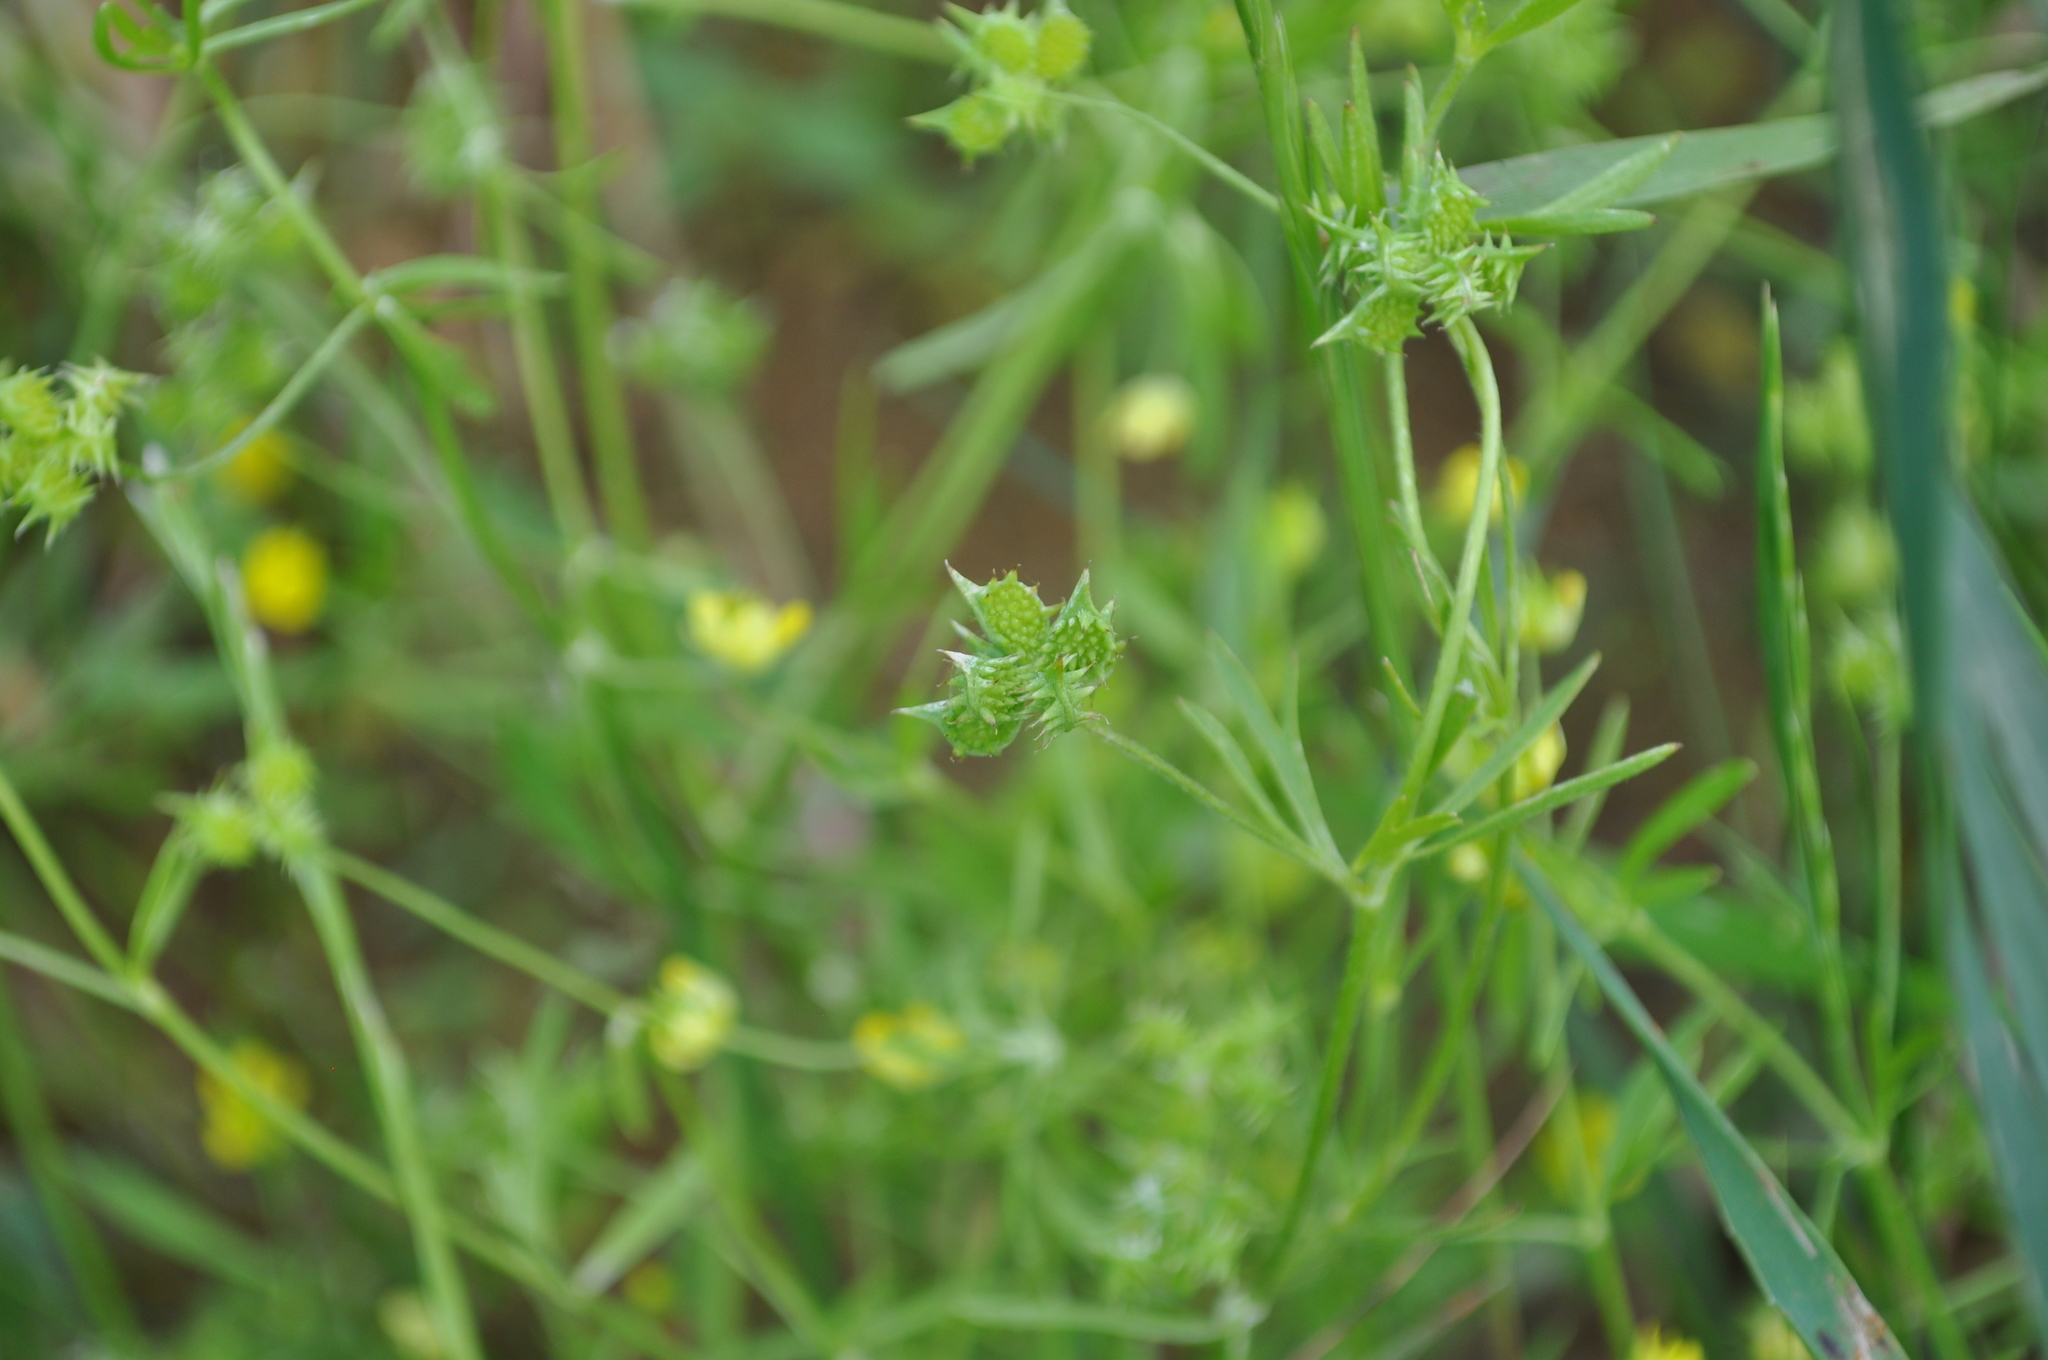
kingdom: Plantae
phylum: Tracheophyta
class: Magnoliopsida
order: Ranunculales
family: Ranunculaceae
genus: Ranunculus
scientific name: Ranunculus arvensis
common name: Corn buttercup
